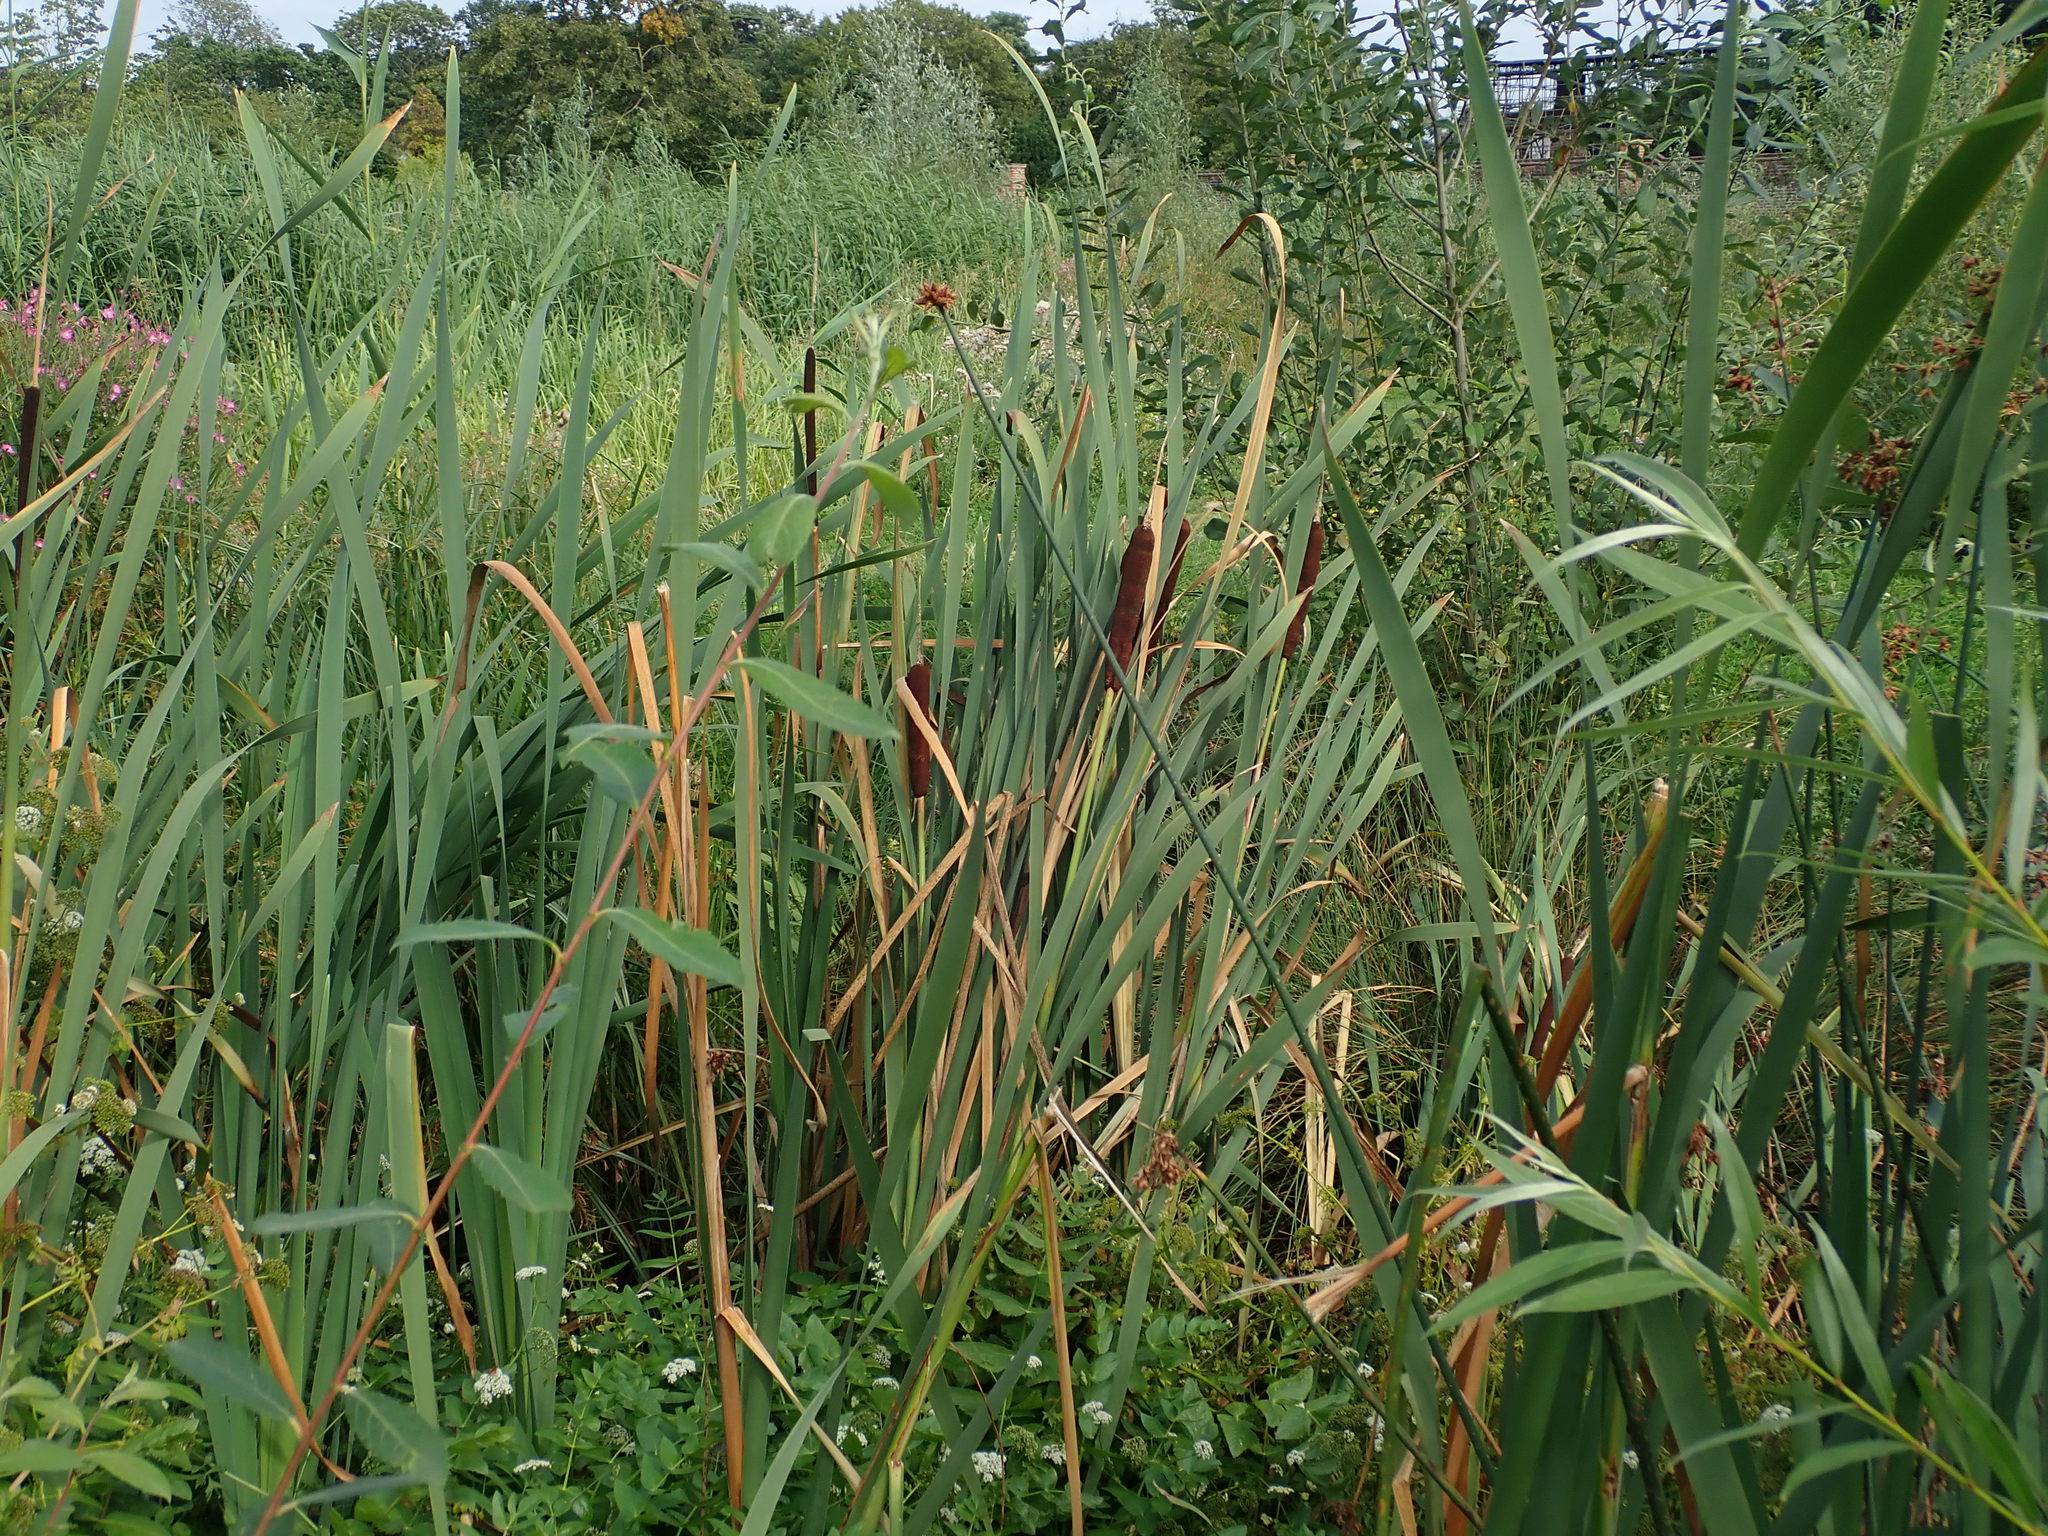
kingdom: Plantae
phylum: Tracheophyta
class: Liliopsida
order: Poales
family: Typhaceae
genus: Typha
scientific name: Typha latifolia
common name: Broadleaf cattail
